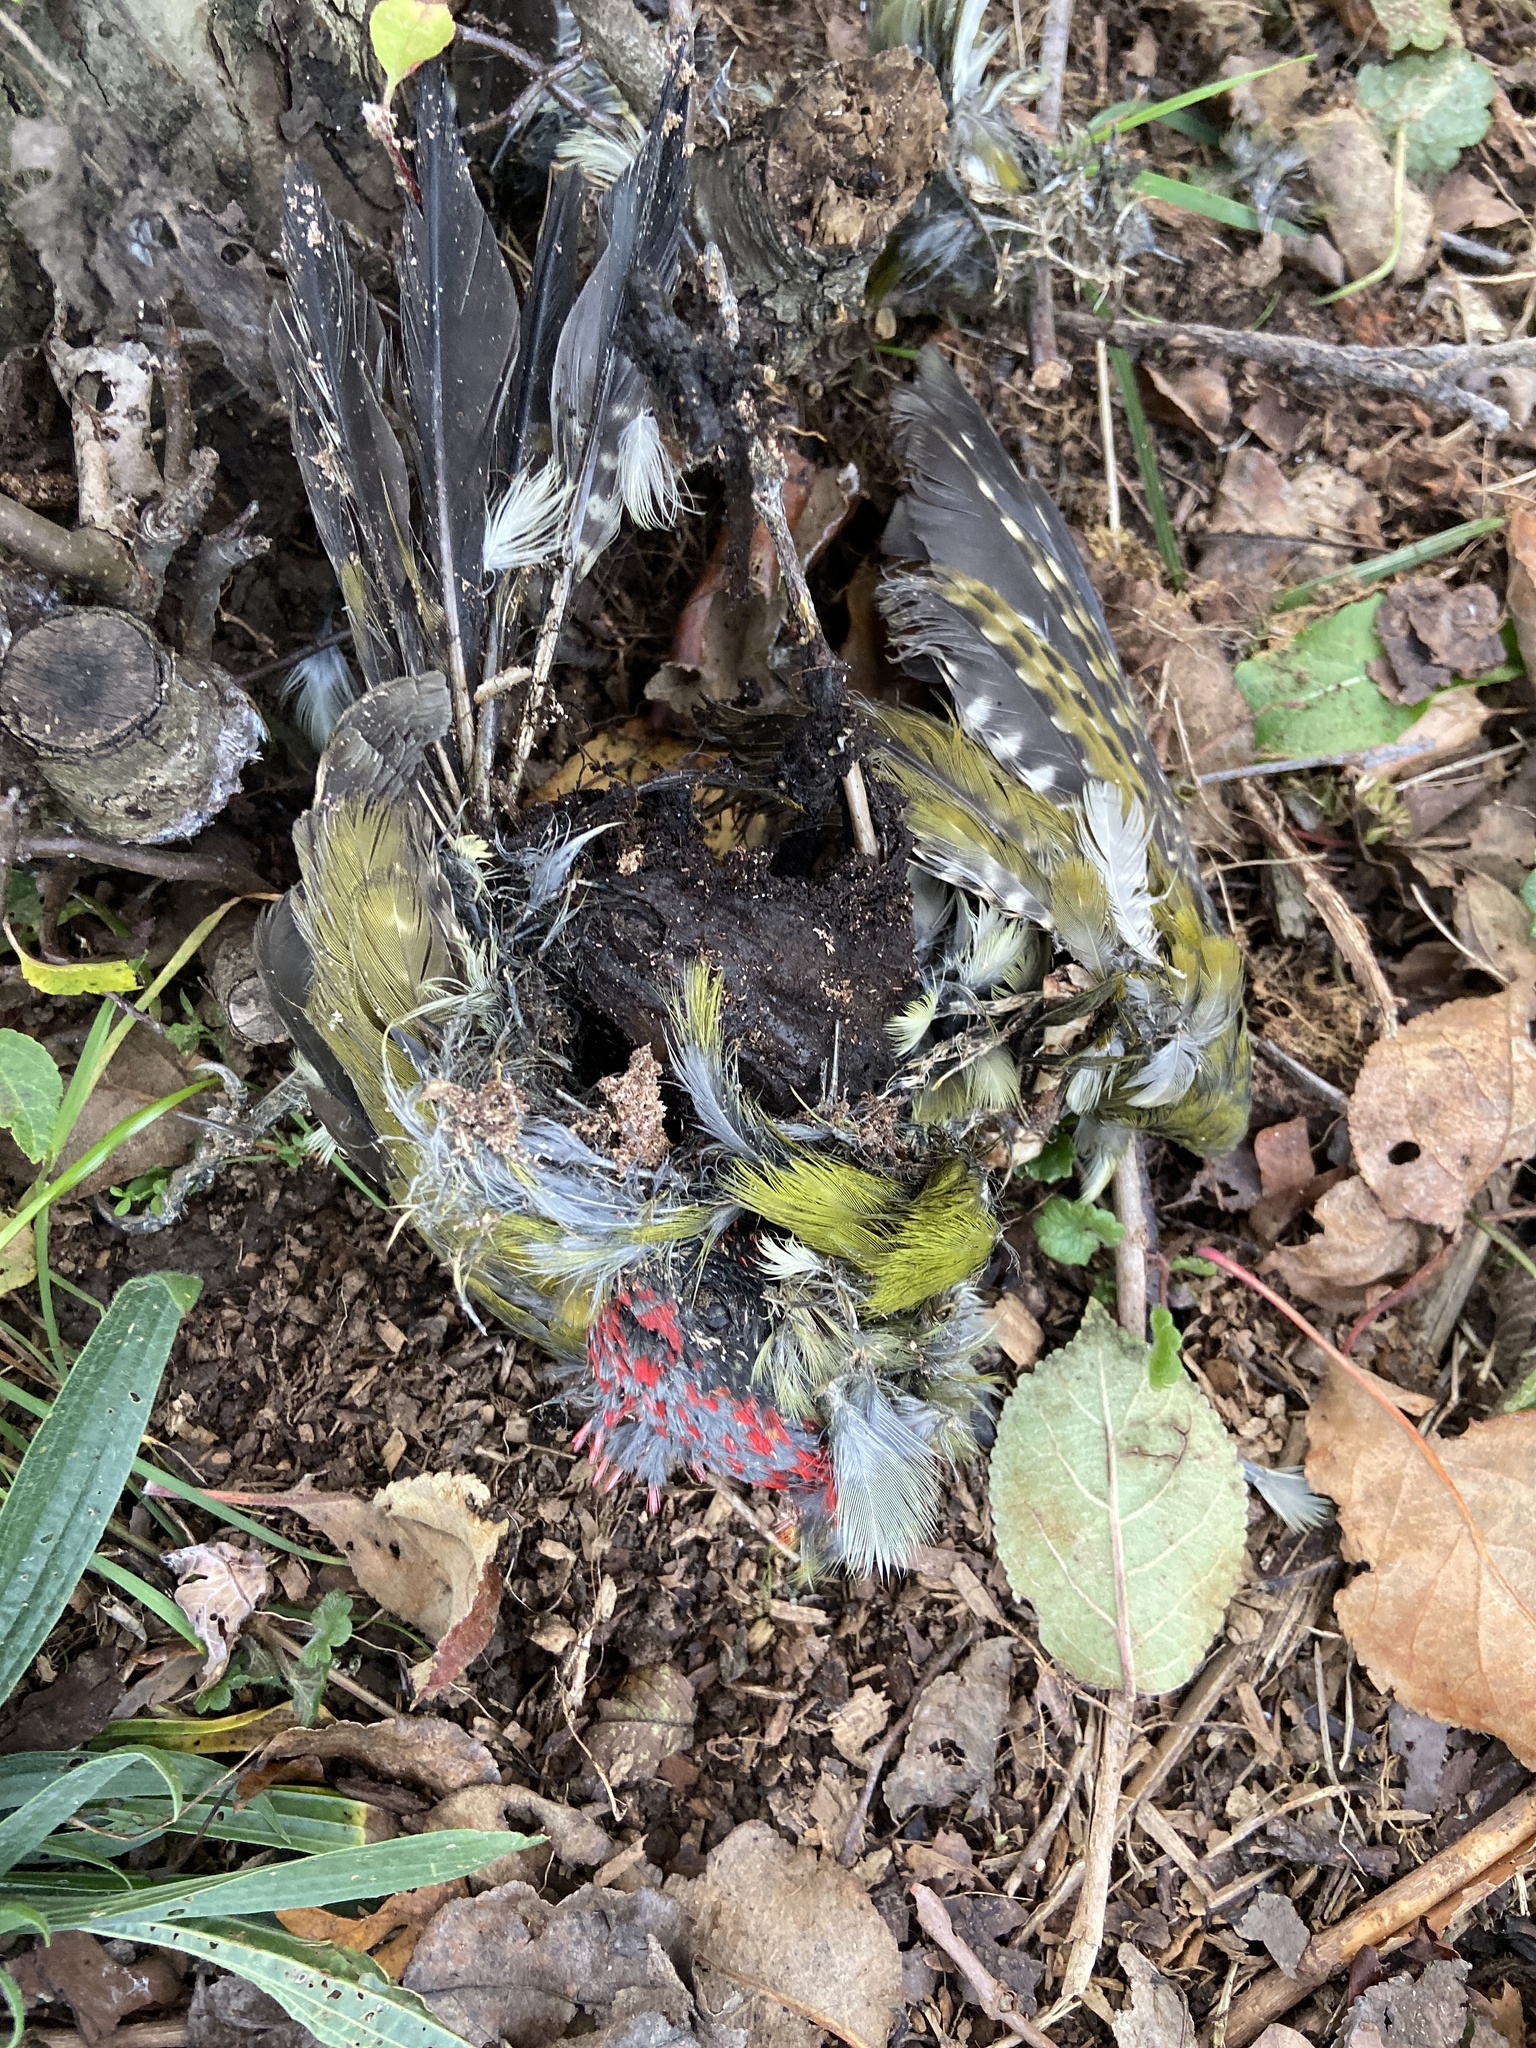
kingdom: Animalia
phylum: Chordata
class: Aves
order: Piciformes
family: Picidae
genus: Picus
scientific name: Picus viridis
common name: European green woodpecker
